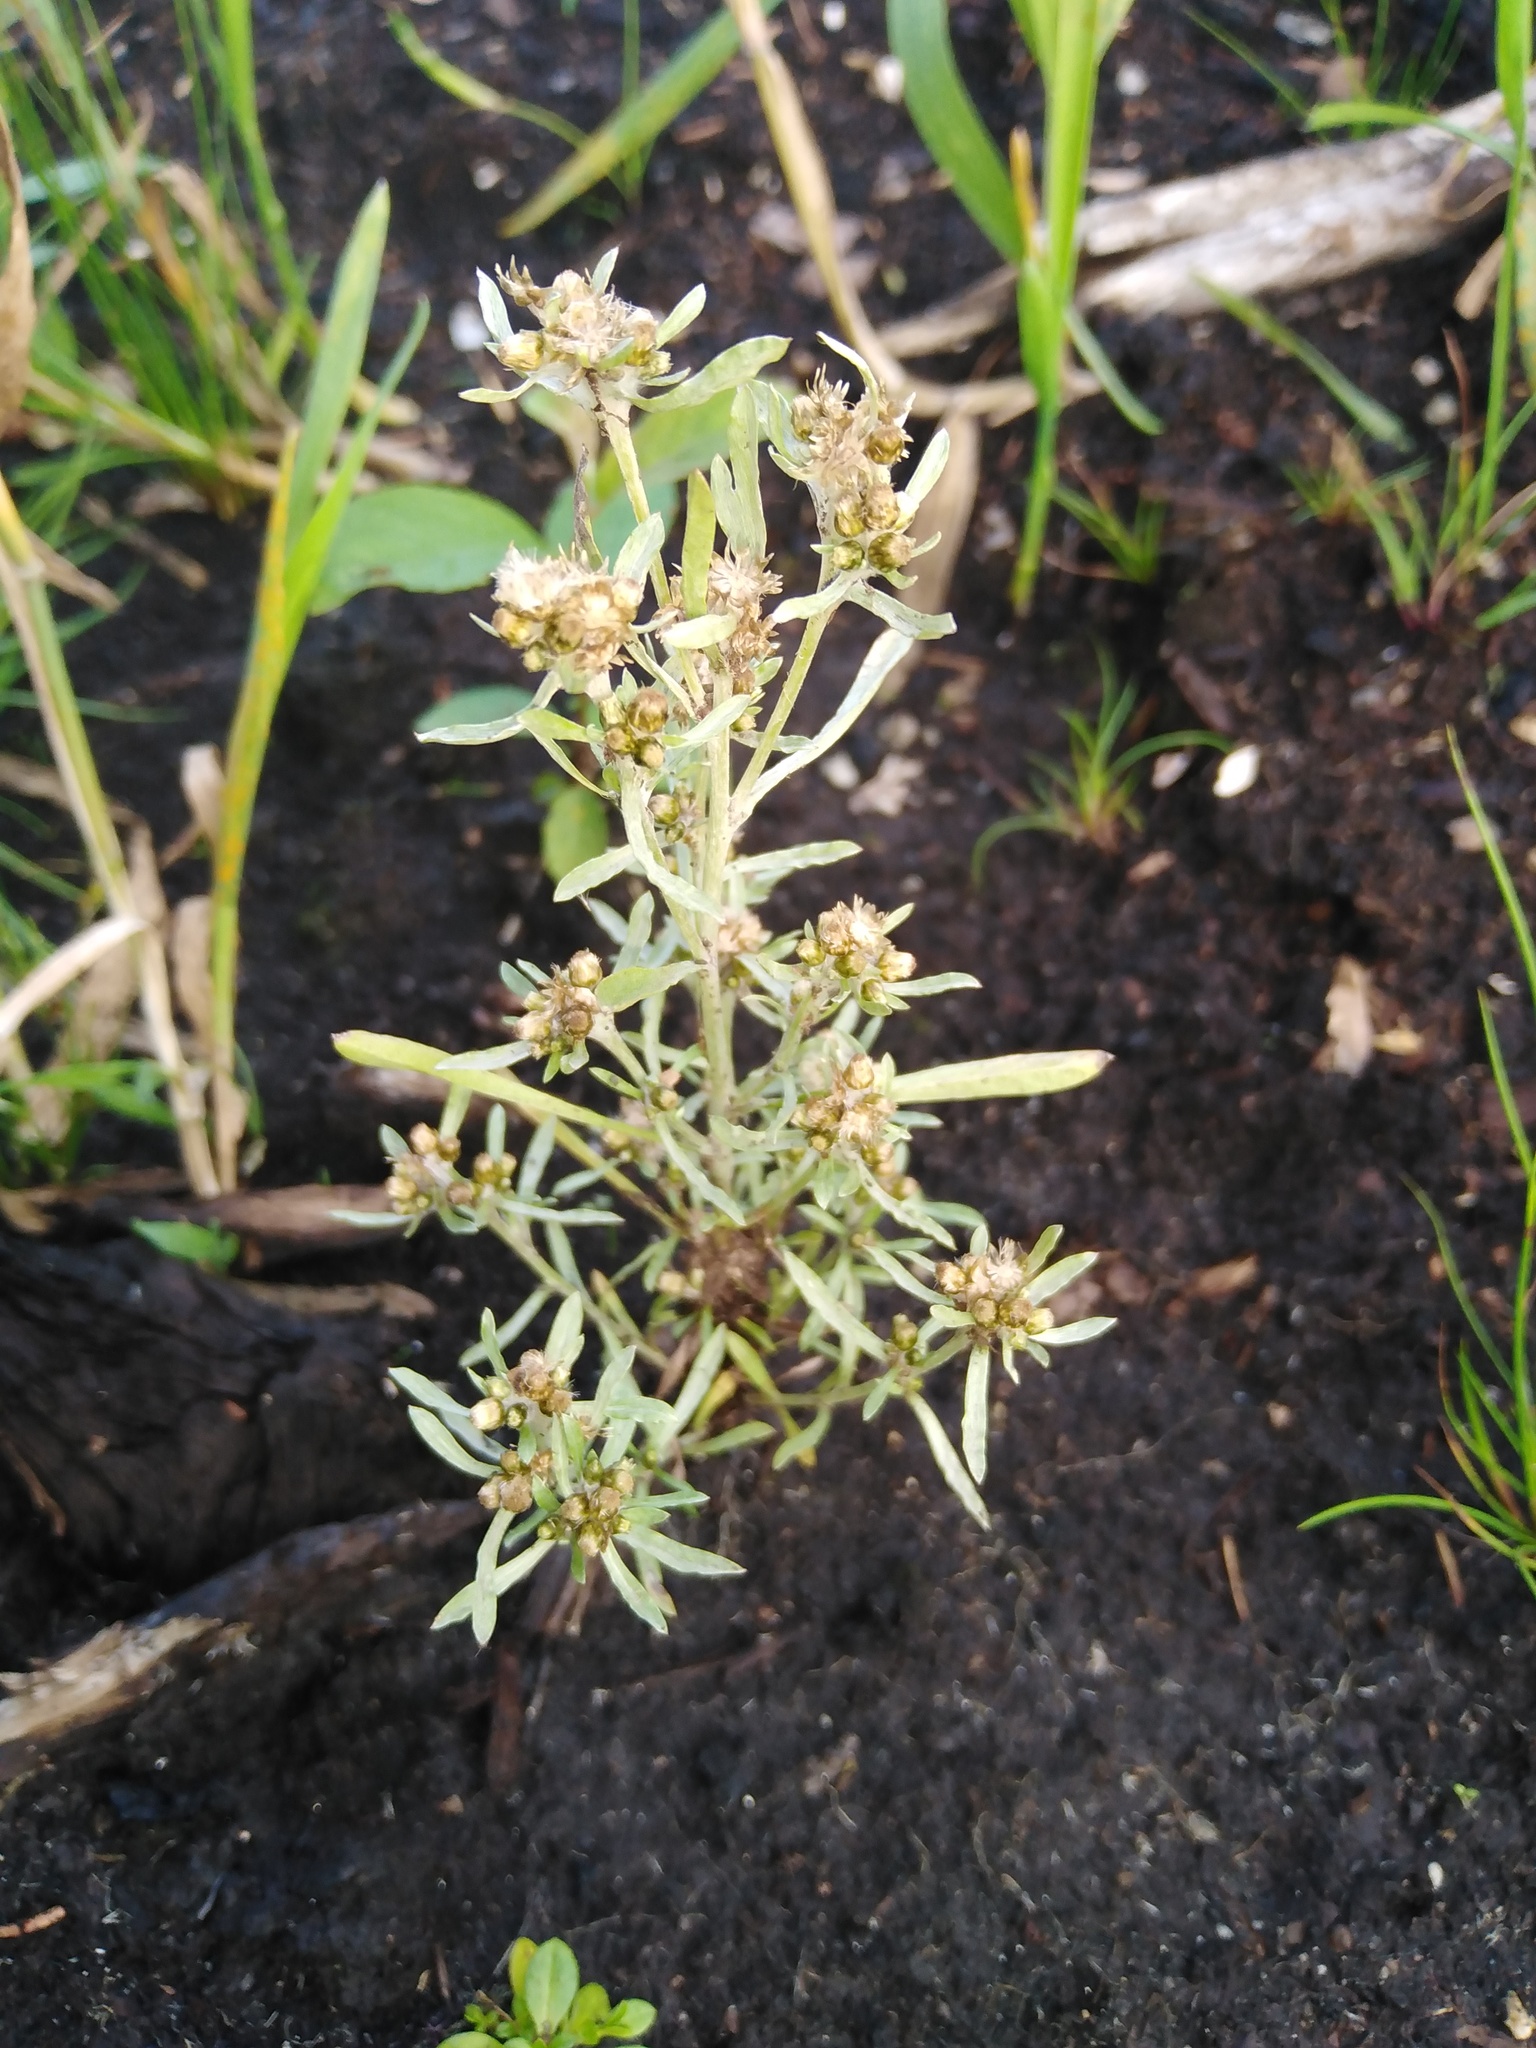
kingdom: Plantae
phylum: Tracheophyta
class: Magnoliopsida
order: Asterales
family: Asteraceae
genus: Gnaphalium
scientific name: Gnaphalium uliginosum
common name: Marsh cudweed
